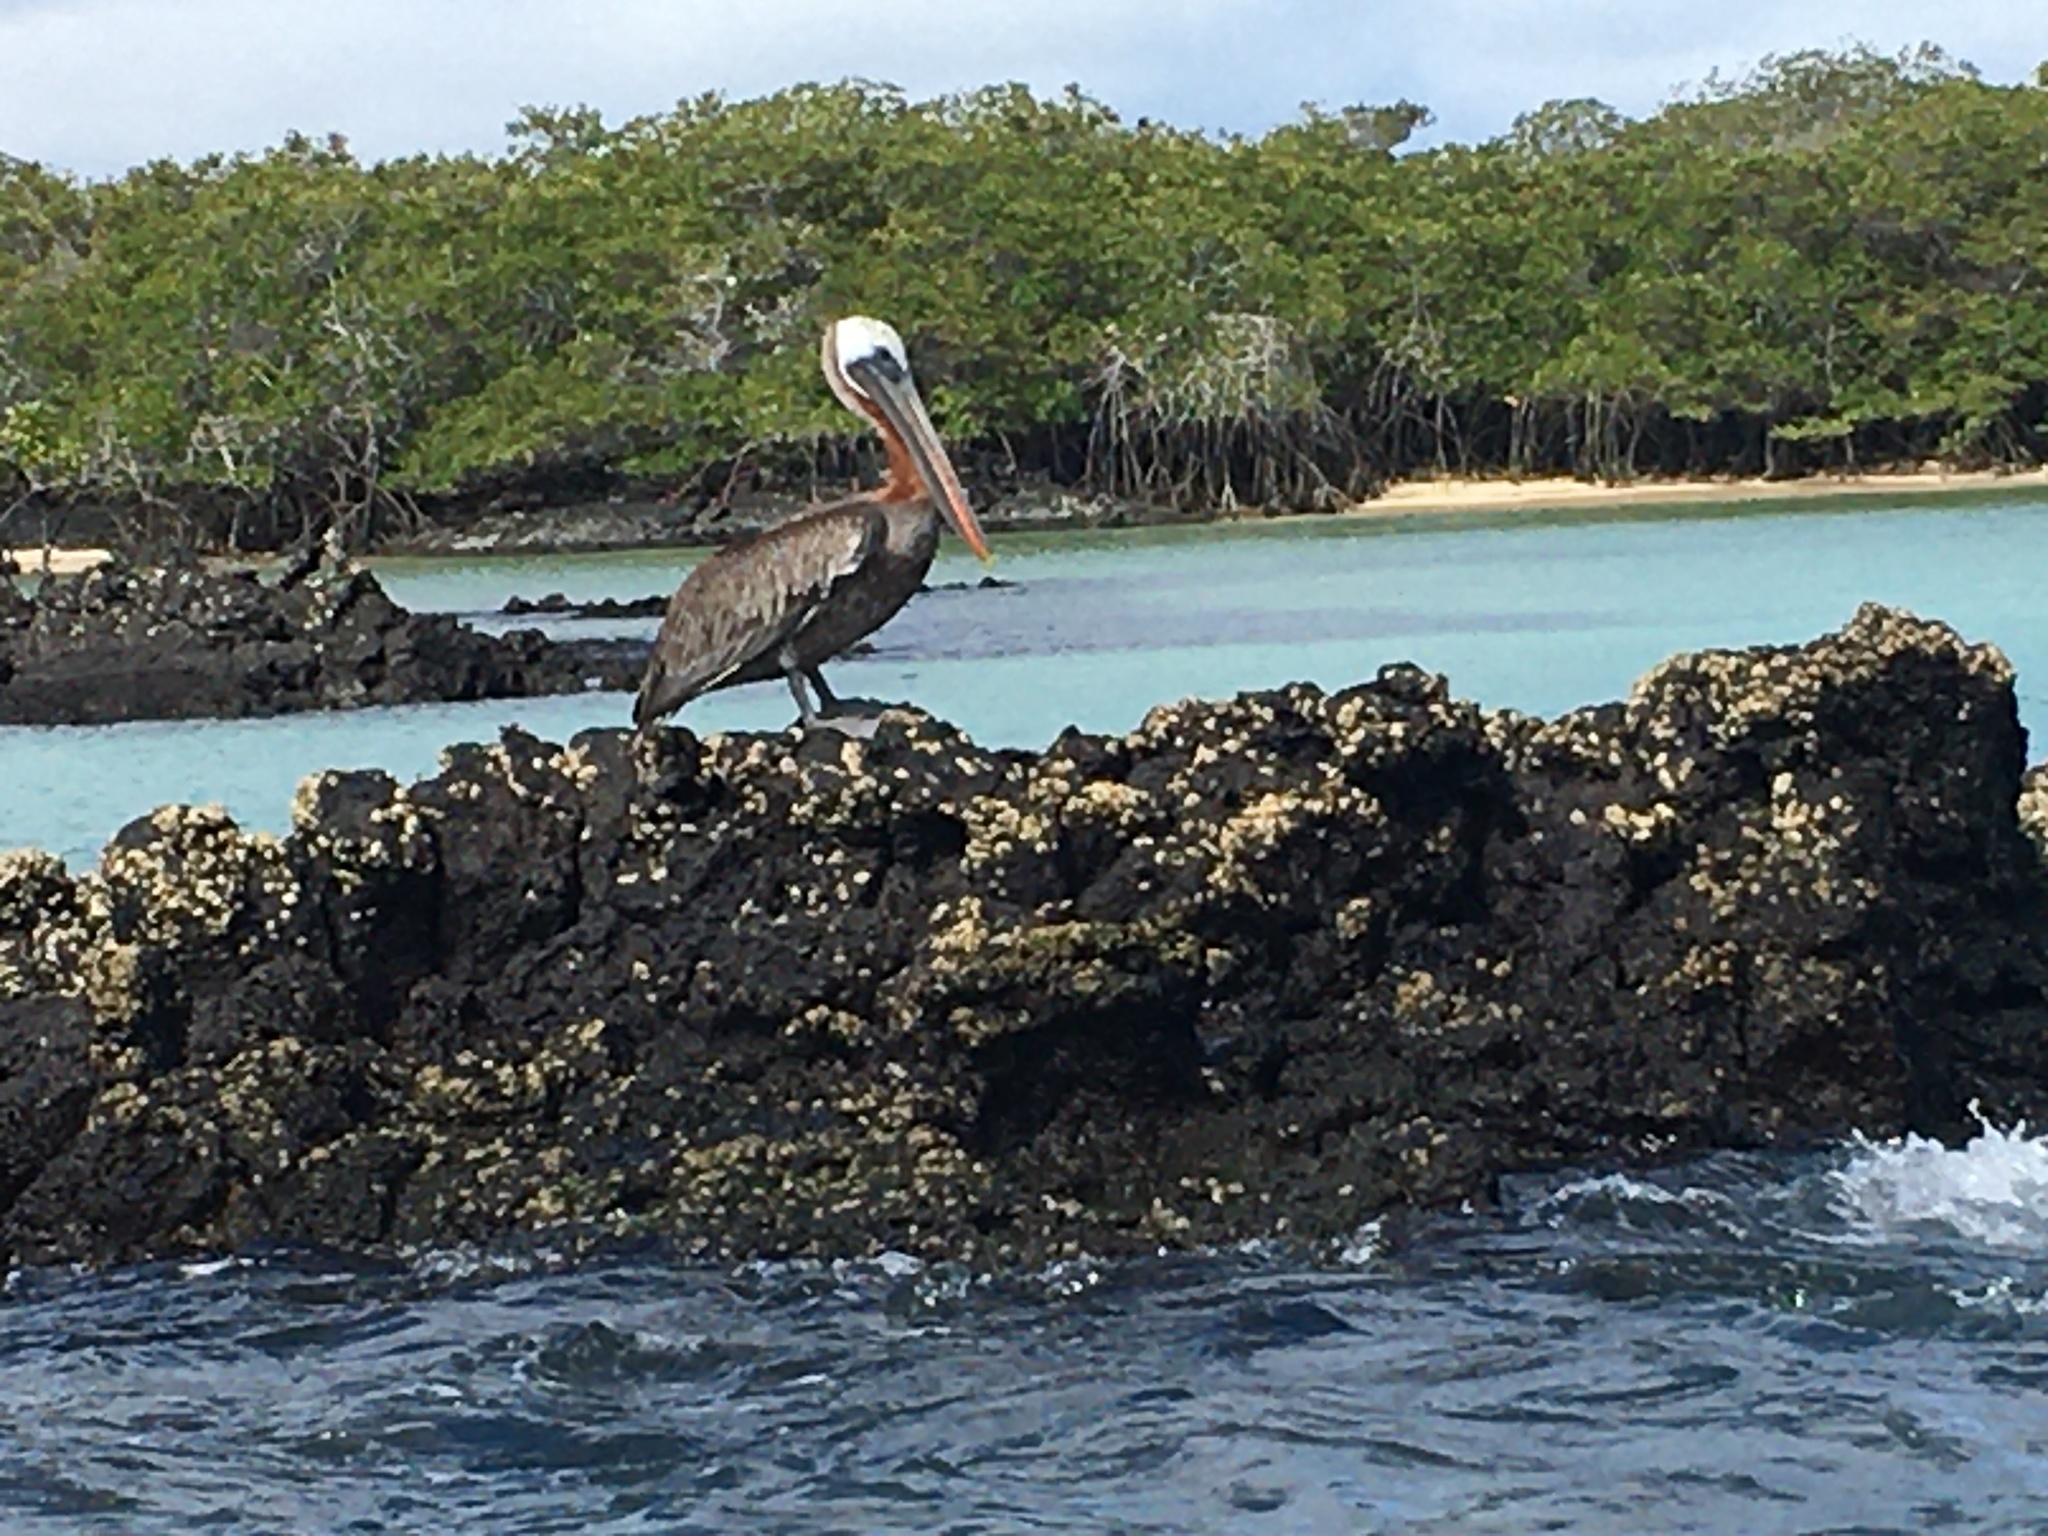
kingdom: Animalia
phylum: Chordata
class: Aves
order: Pelecaniformes
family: Pelecanidae
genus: Pelecanus
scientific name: Pelecanus occidentalis
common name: Brown pelican
